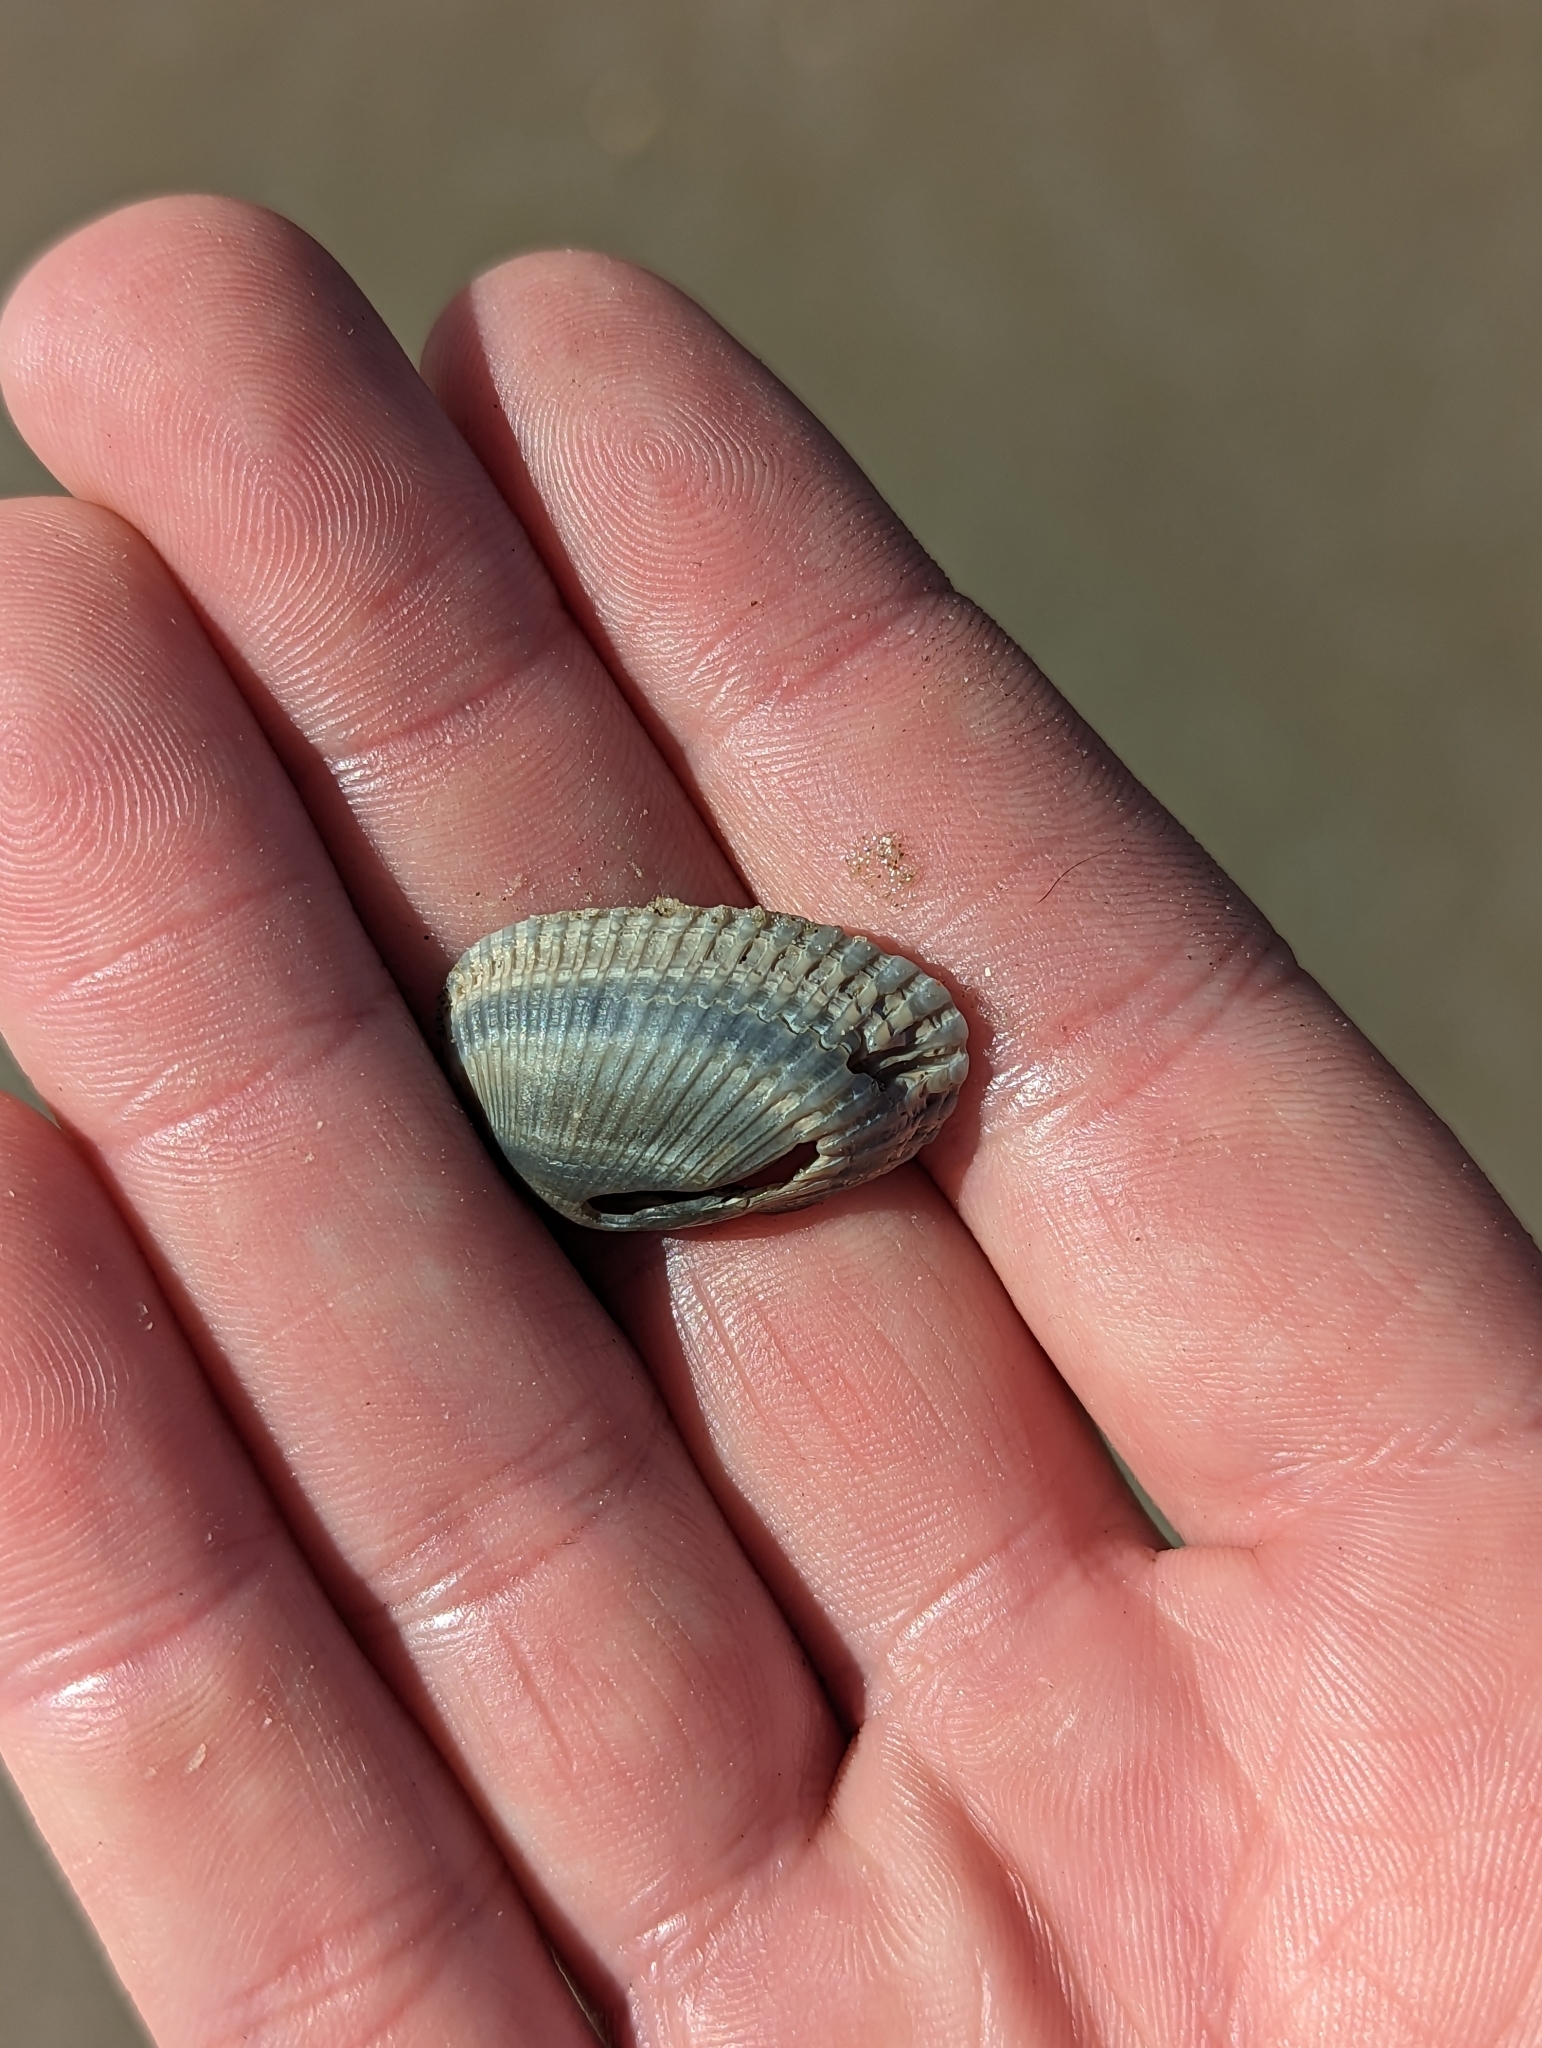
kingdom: Animalia
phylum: Mollusca
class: Bivalvia
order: Arcida
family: Arcidae
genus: Anadara
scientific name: Anadara transversa
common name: Transverse ark
